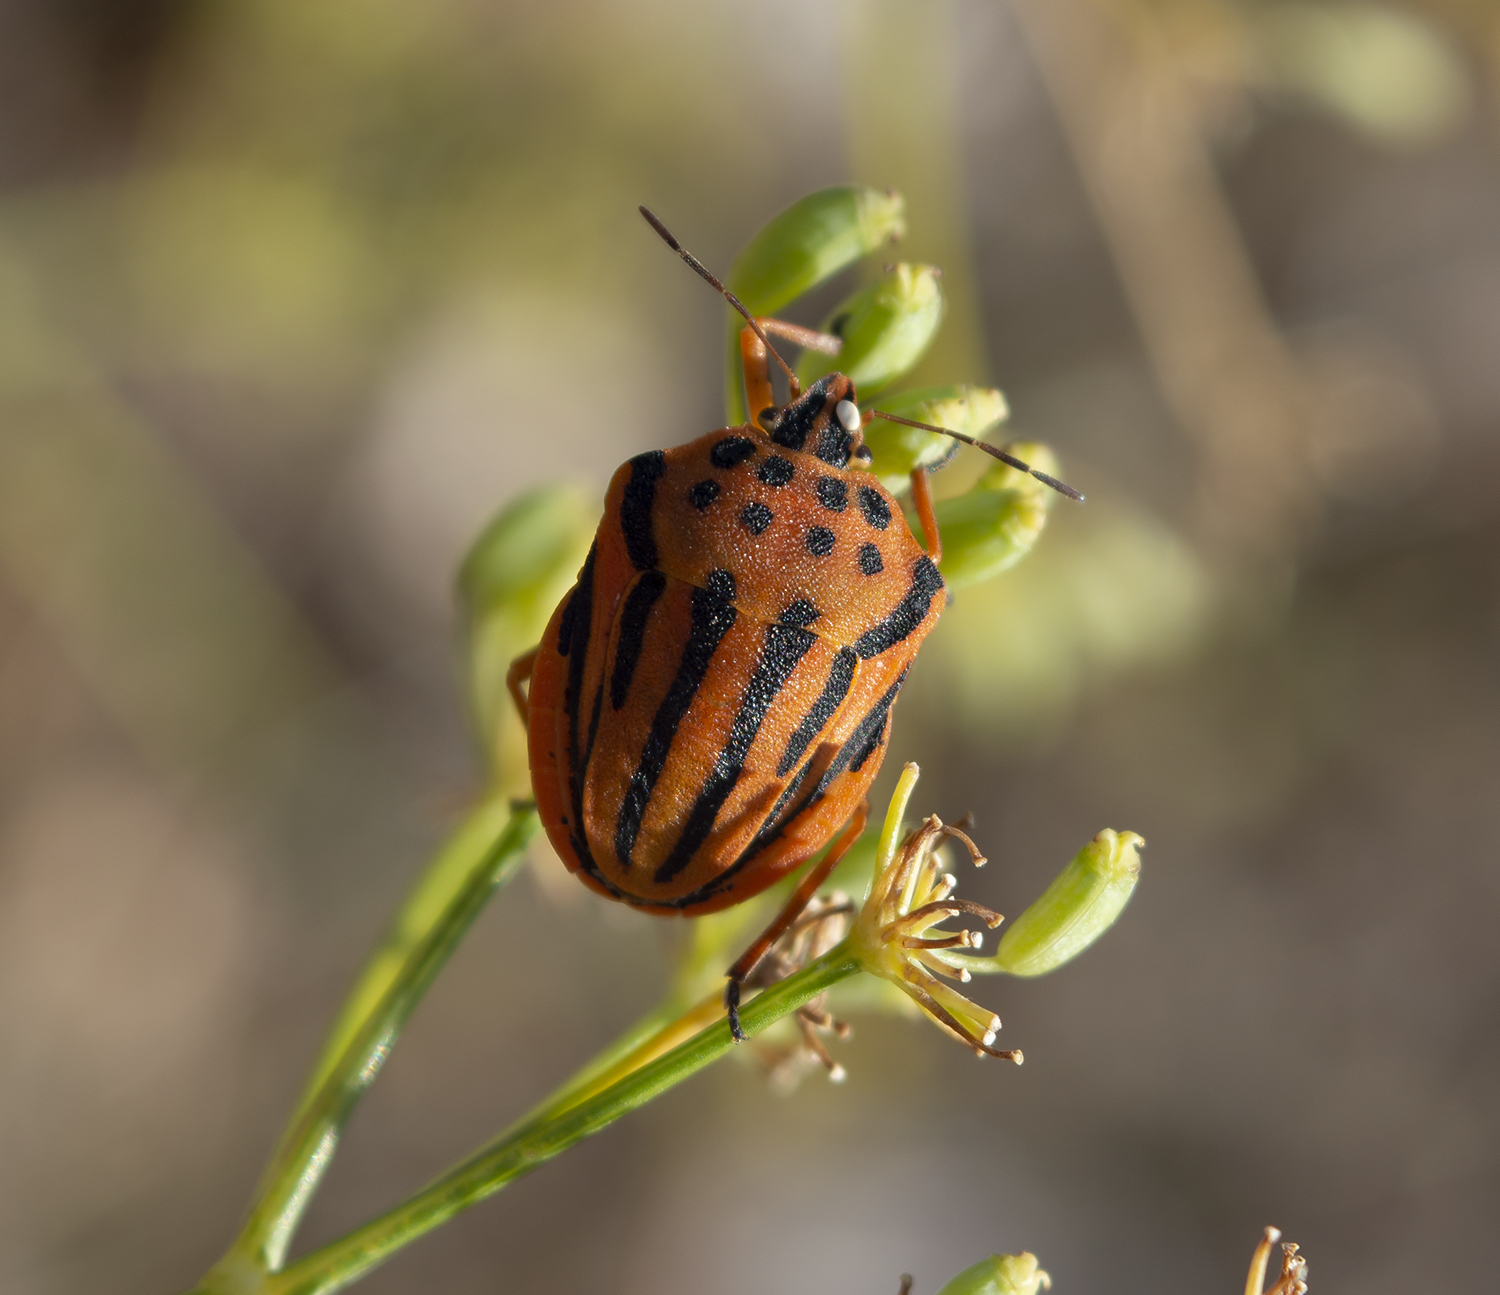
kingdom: Animalia
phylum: Arthropoda
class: Insecta
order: Hemiptera
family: Pentatomidae
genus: Graphosoma
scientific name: Graphosoma semipunctatum
